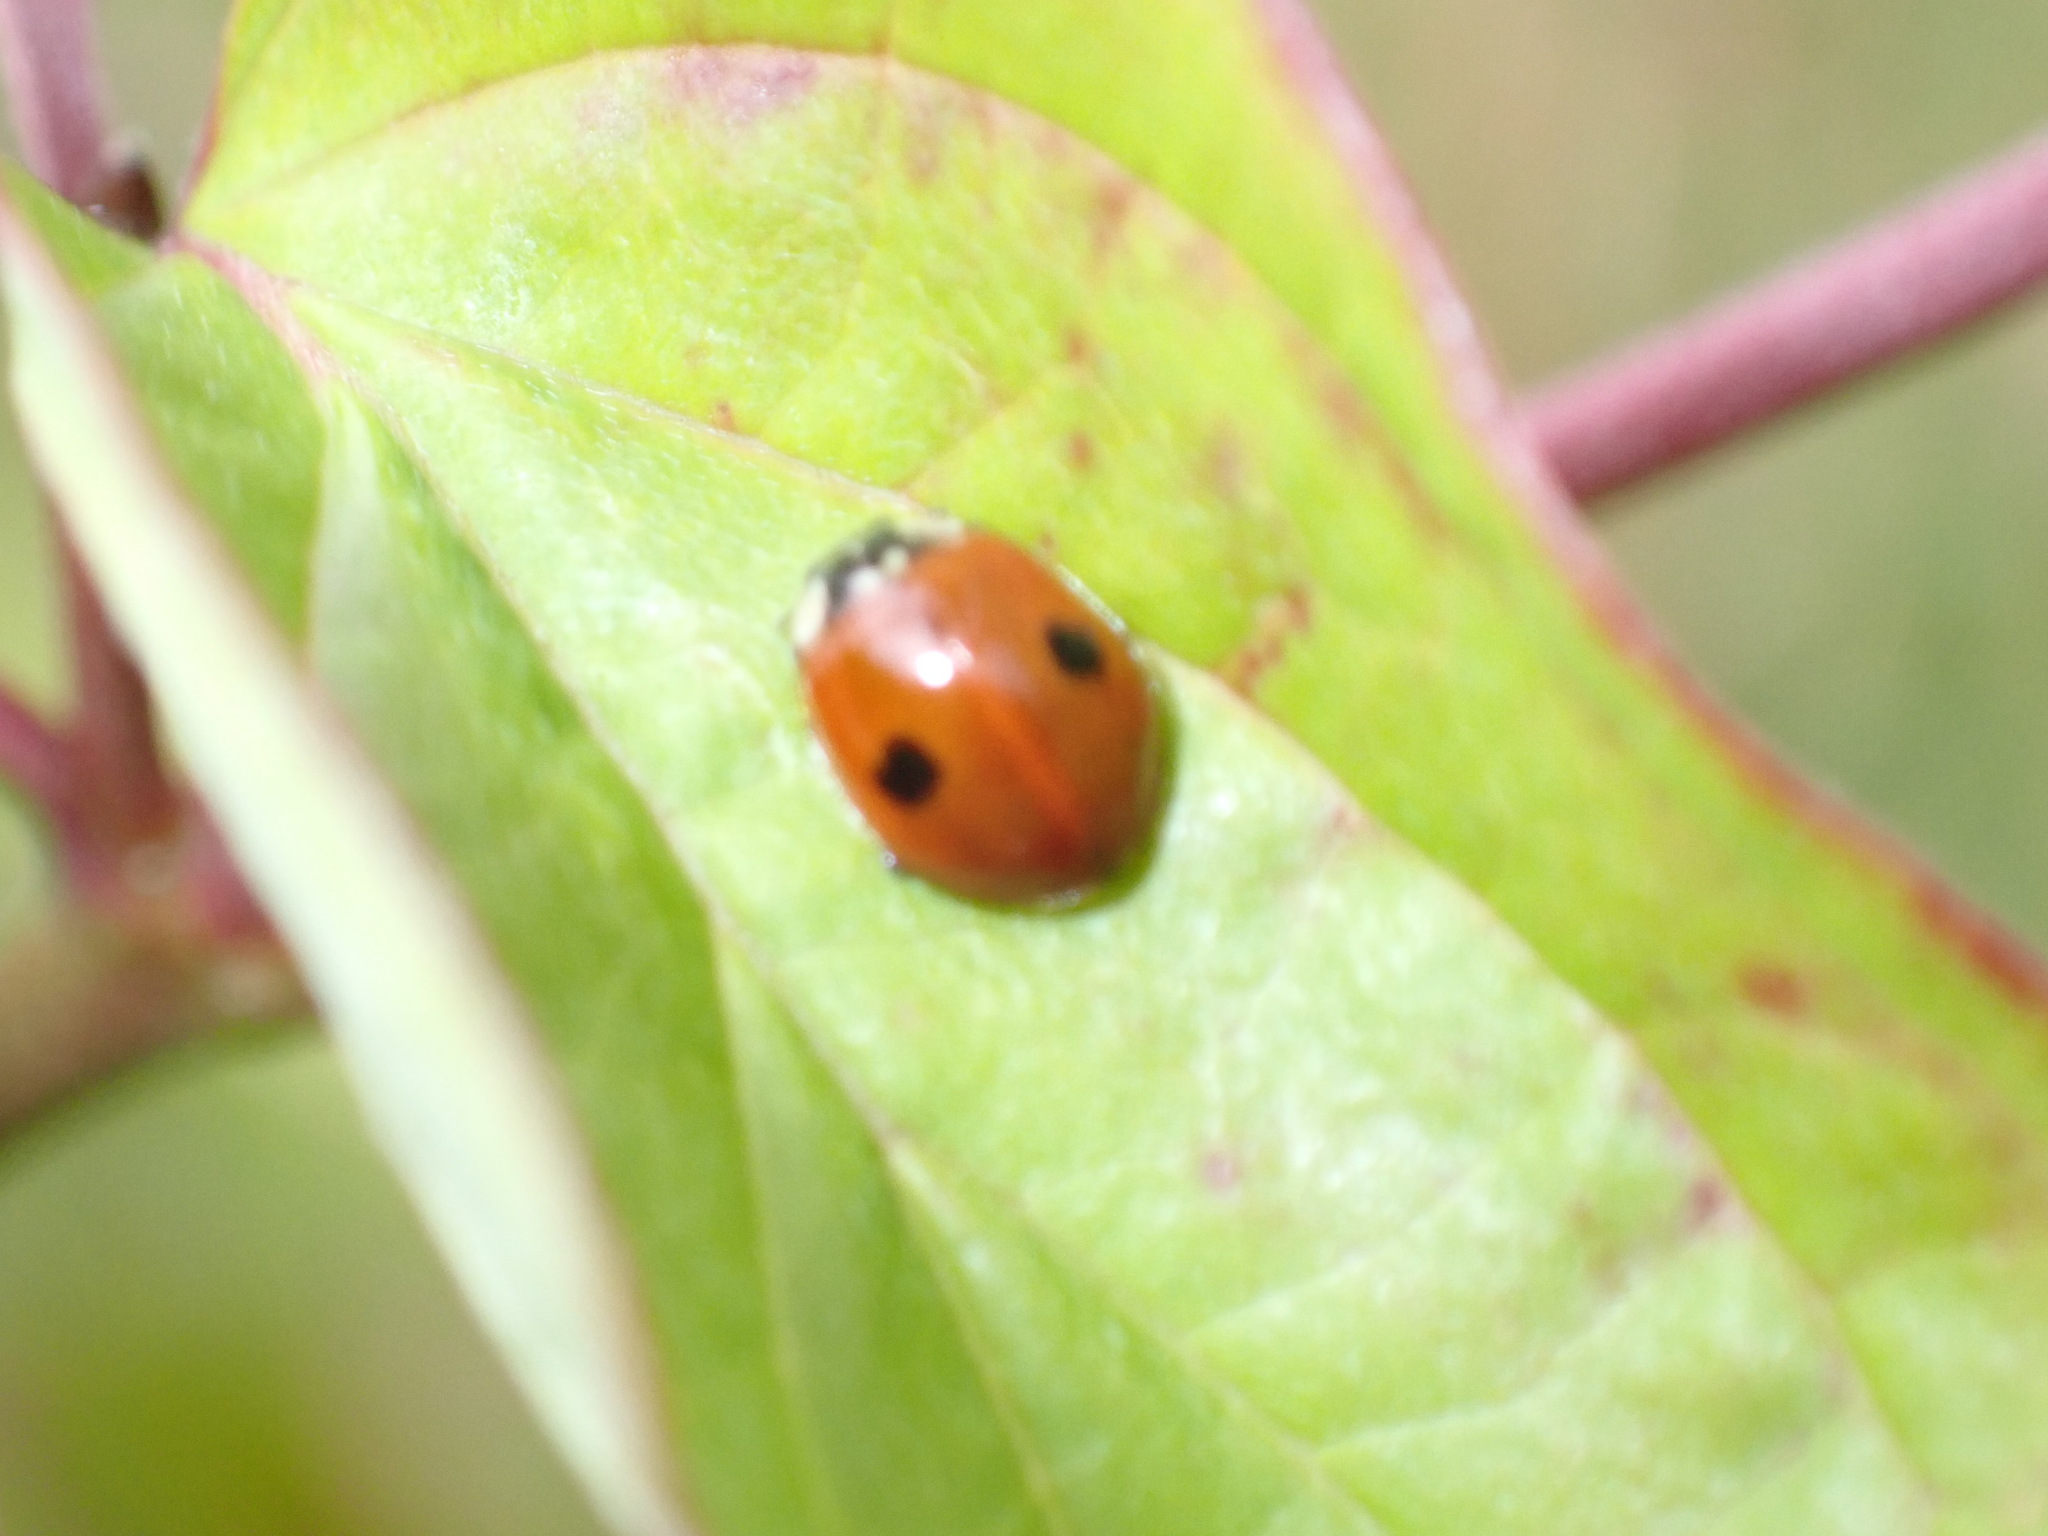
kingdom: Animalia
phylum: Arthropoda
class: Insecta
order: Coleoptera
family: Coccinellidae
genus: Adalia
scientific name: Adalia bipunctata
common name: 2-spot ladybird
